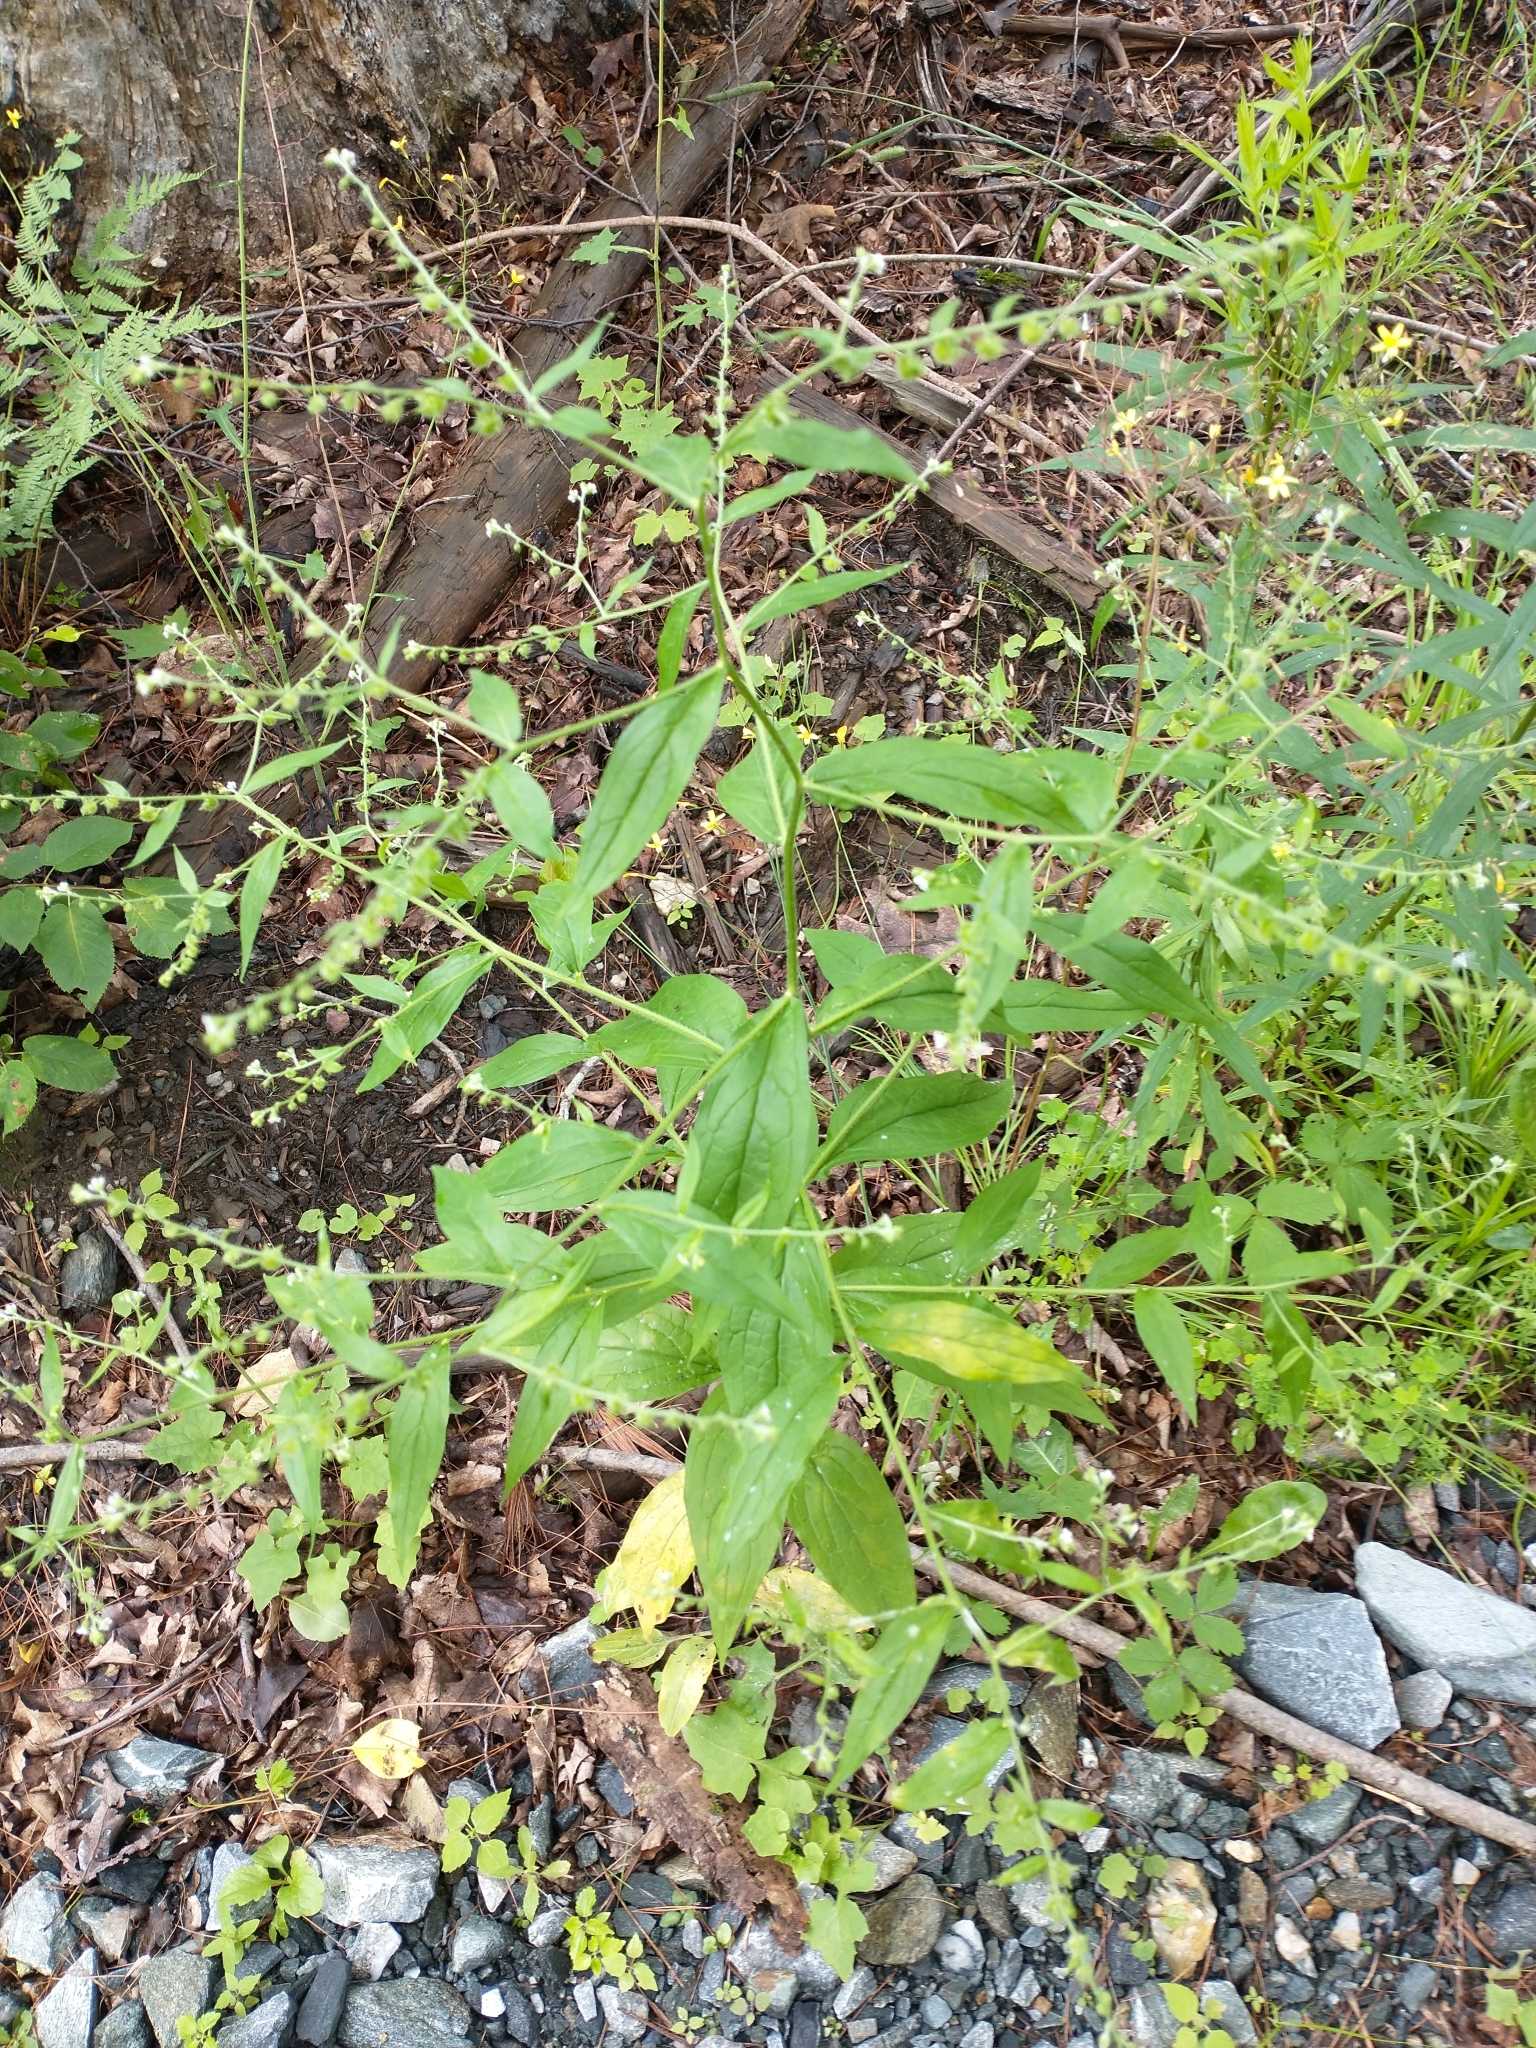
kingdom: Plantae
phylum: Tracheophyta
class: Magnoliopsida
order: Boraginales
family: Boraginaceae
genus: Hackelia
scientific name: Hackelia virginiana
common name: Beggar's-lice
